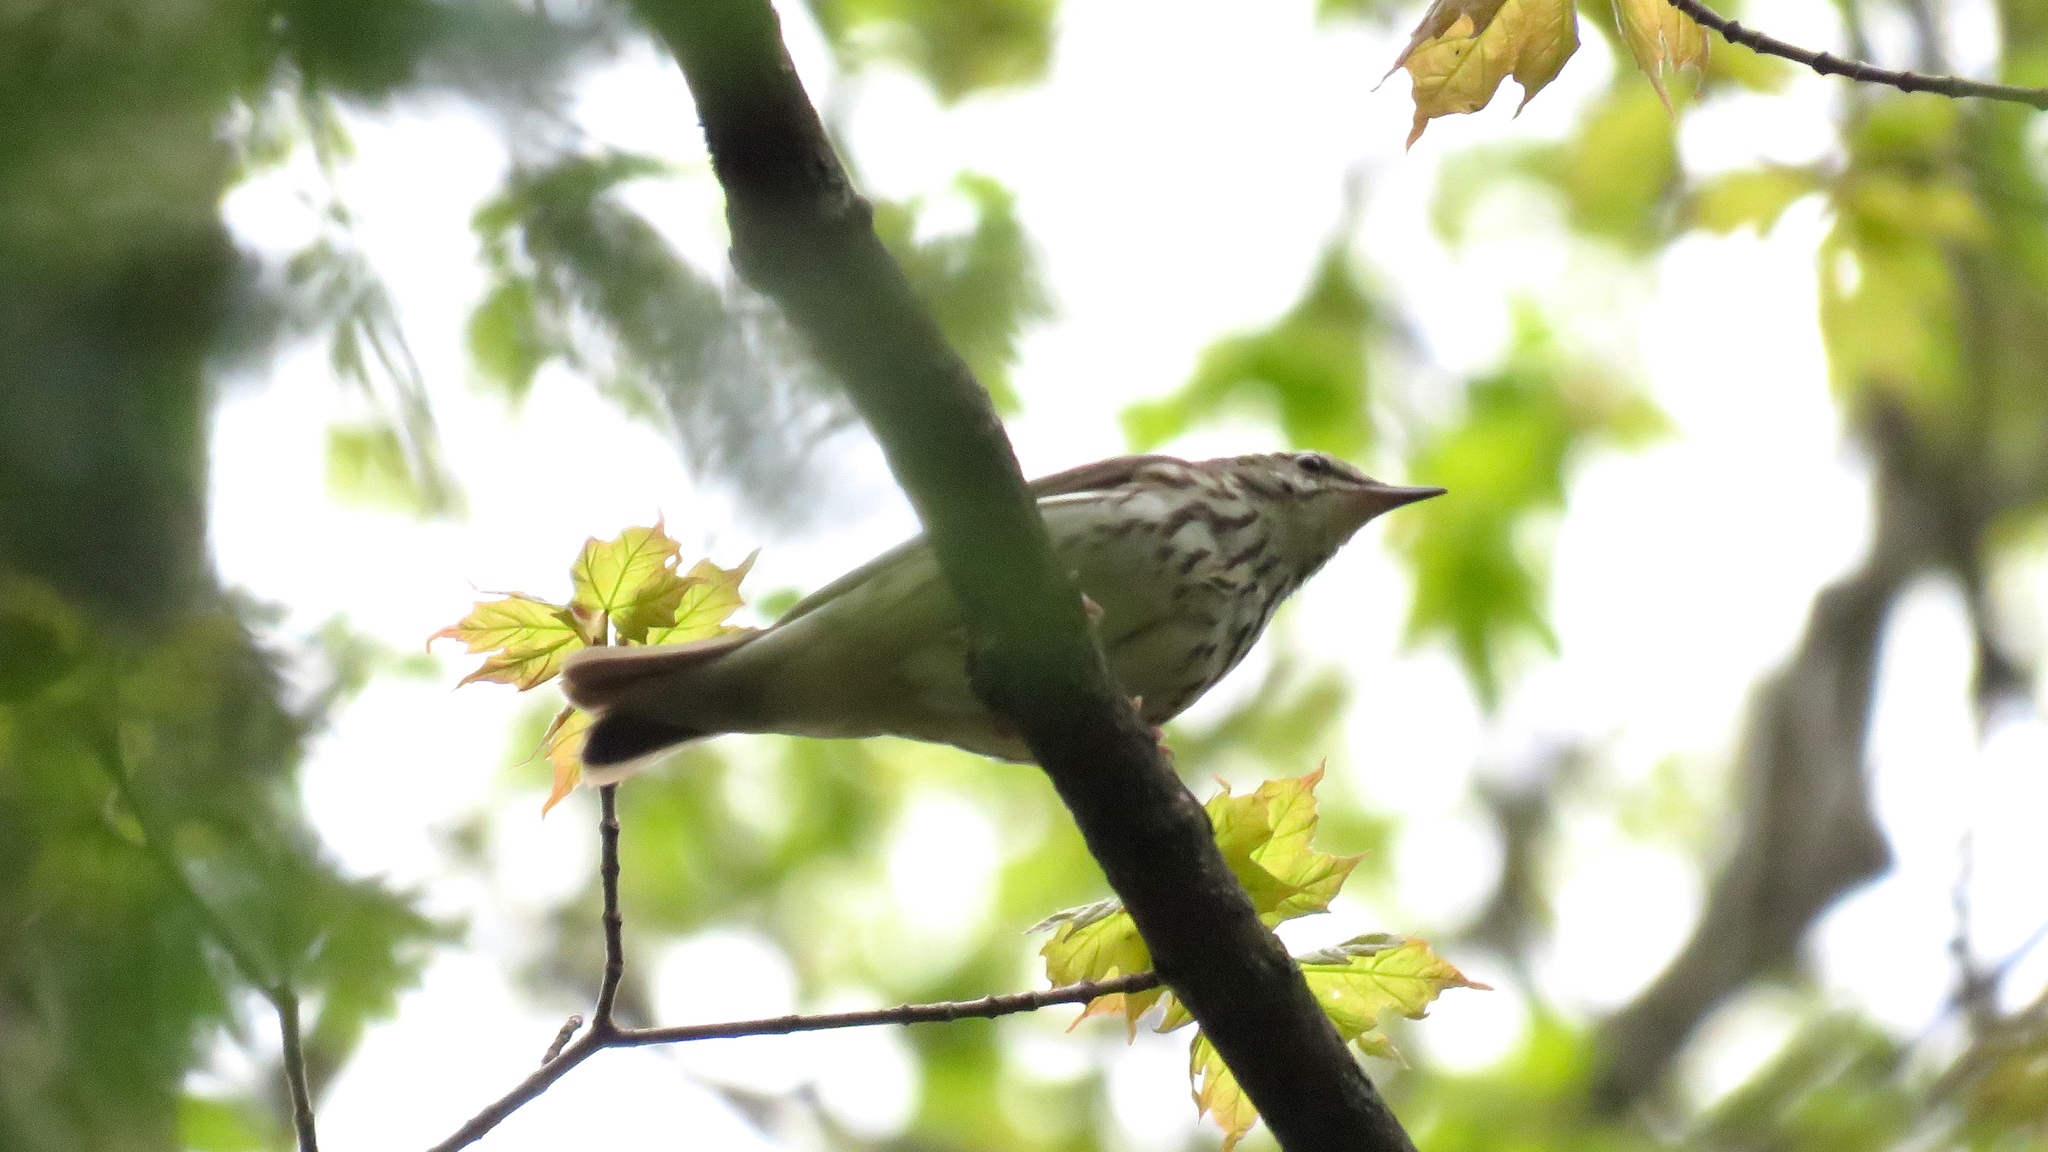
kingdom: Animalia
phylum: Chordata
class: Aves
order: Passeriformes
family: Parulidae
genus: Parkesia
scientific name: Parkesia motacilla
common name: Louisiana waterthrush
